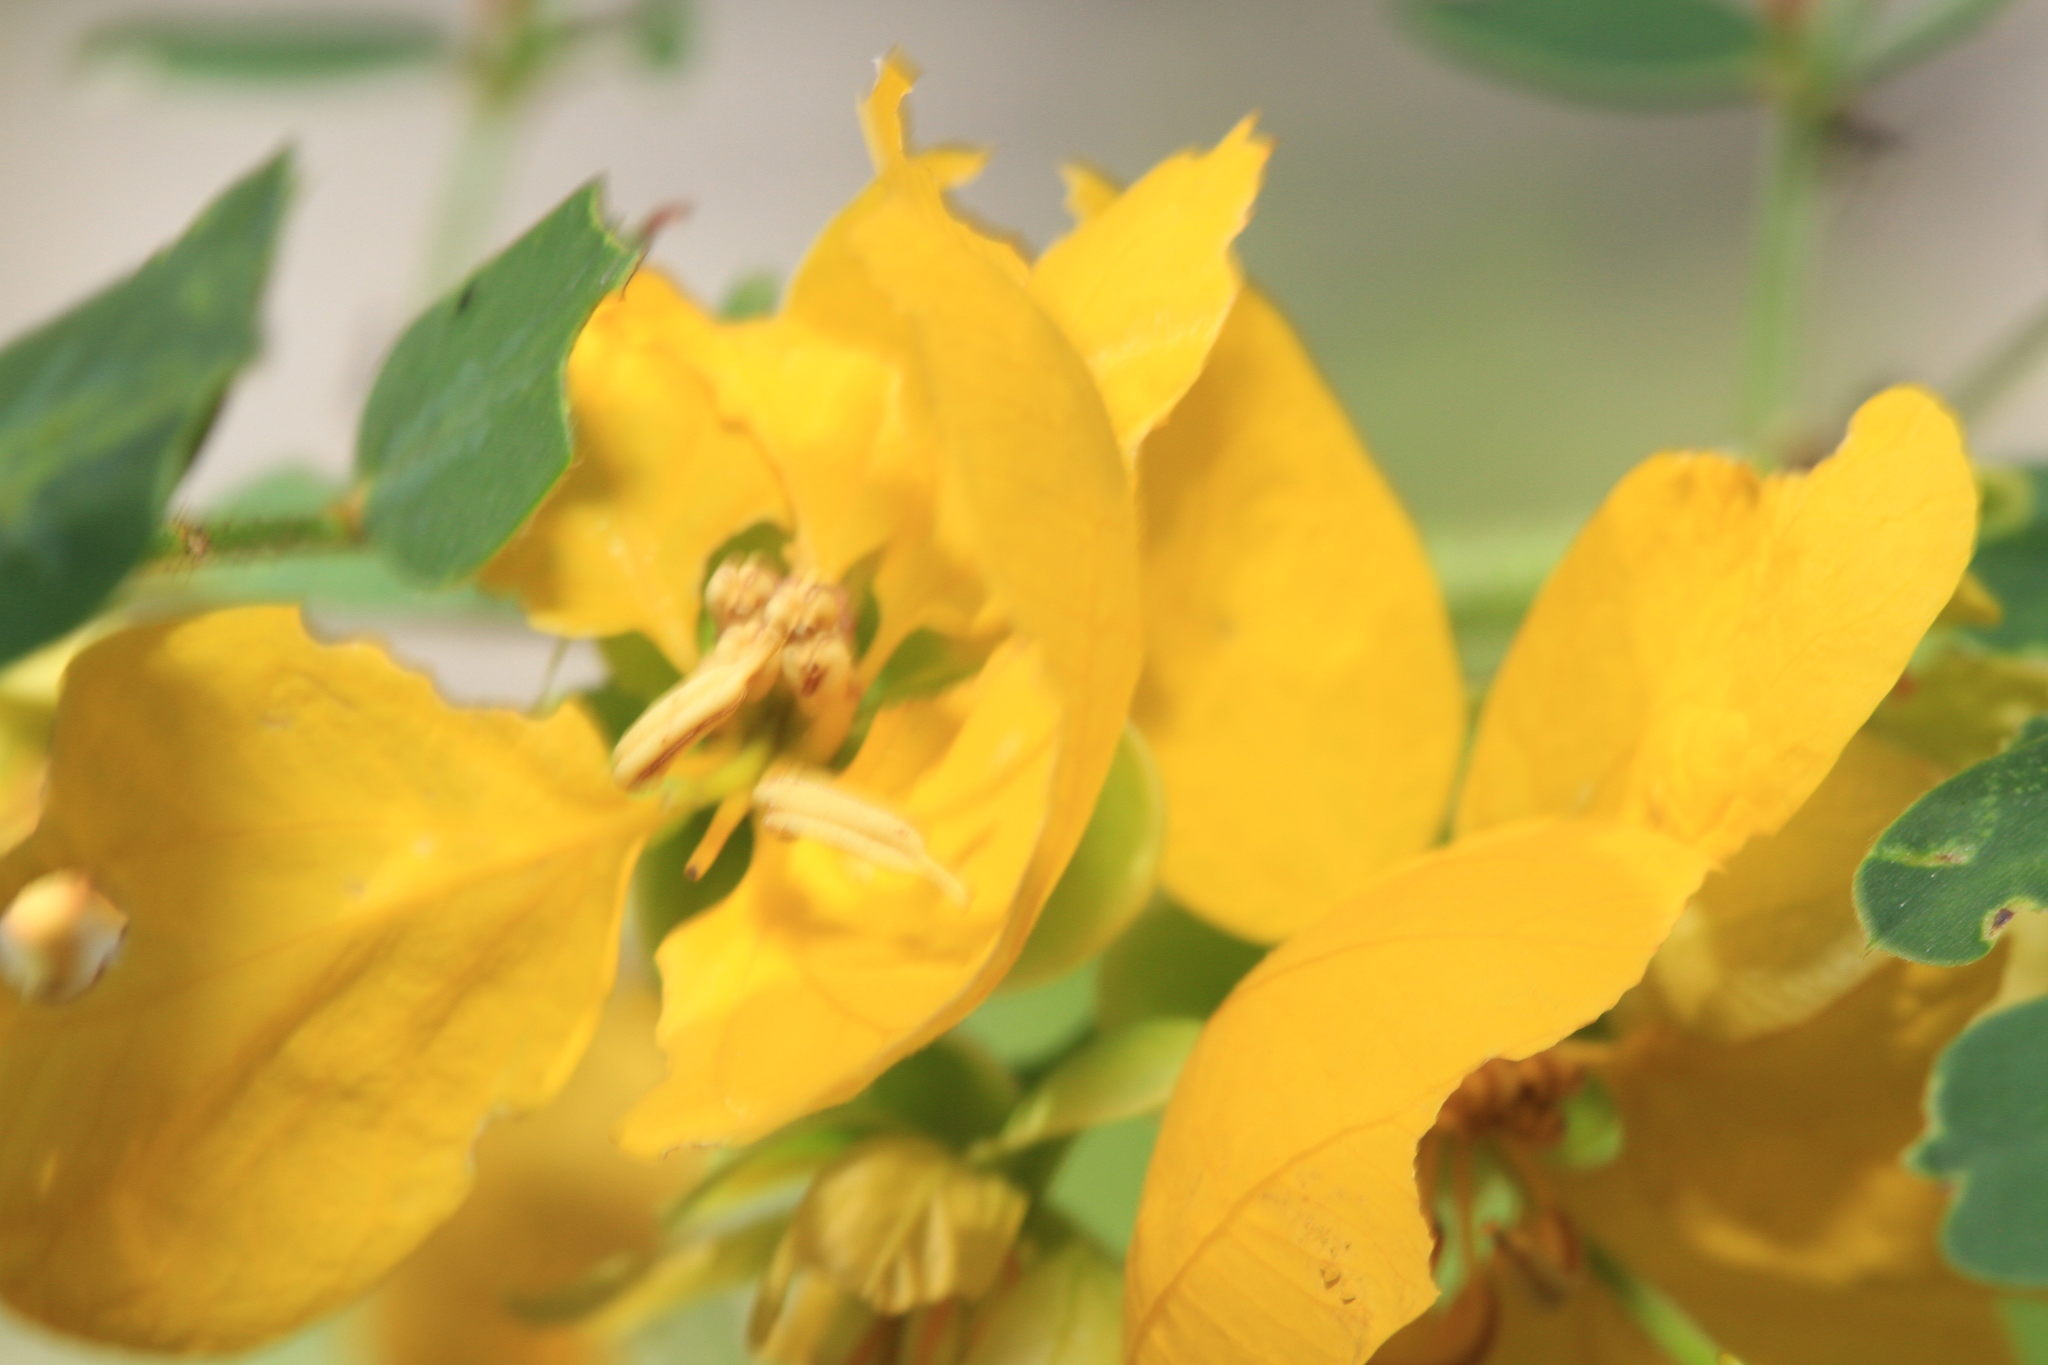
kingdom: Plantae
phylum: Tracheophyta
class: Magnoliopsida
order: Fabales
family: Fabaceae
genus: Senna
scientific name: Senna chapmanii
